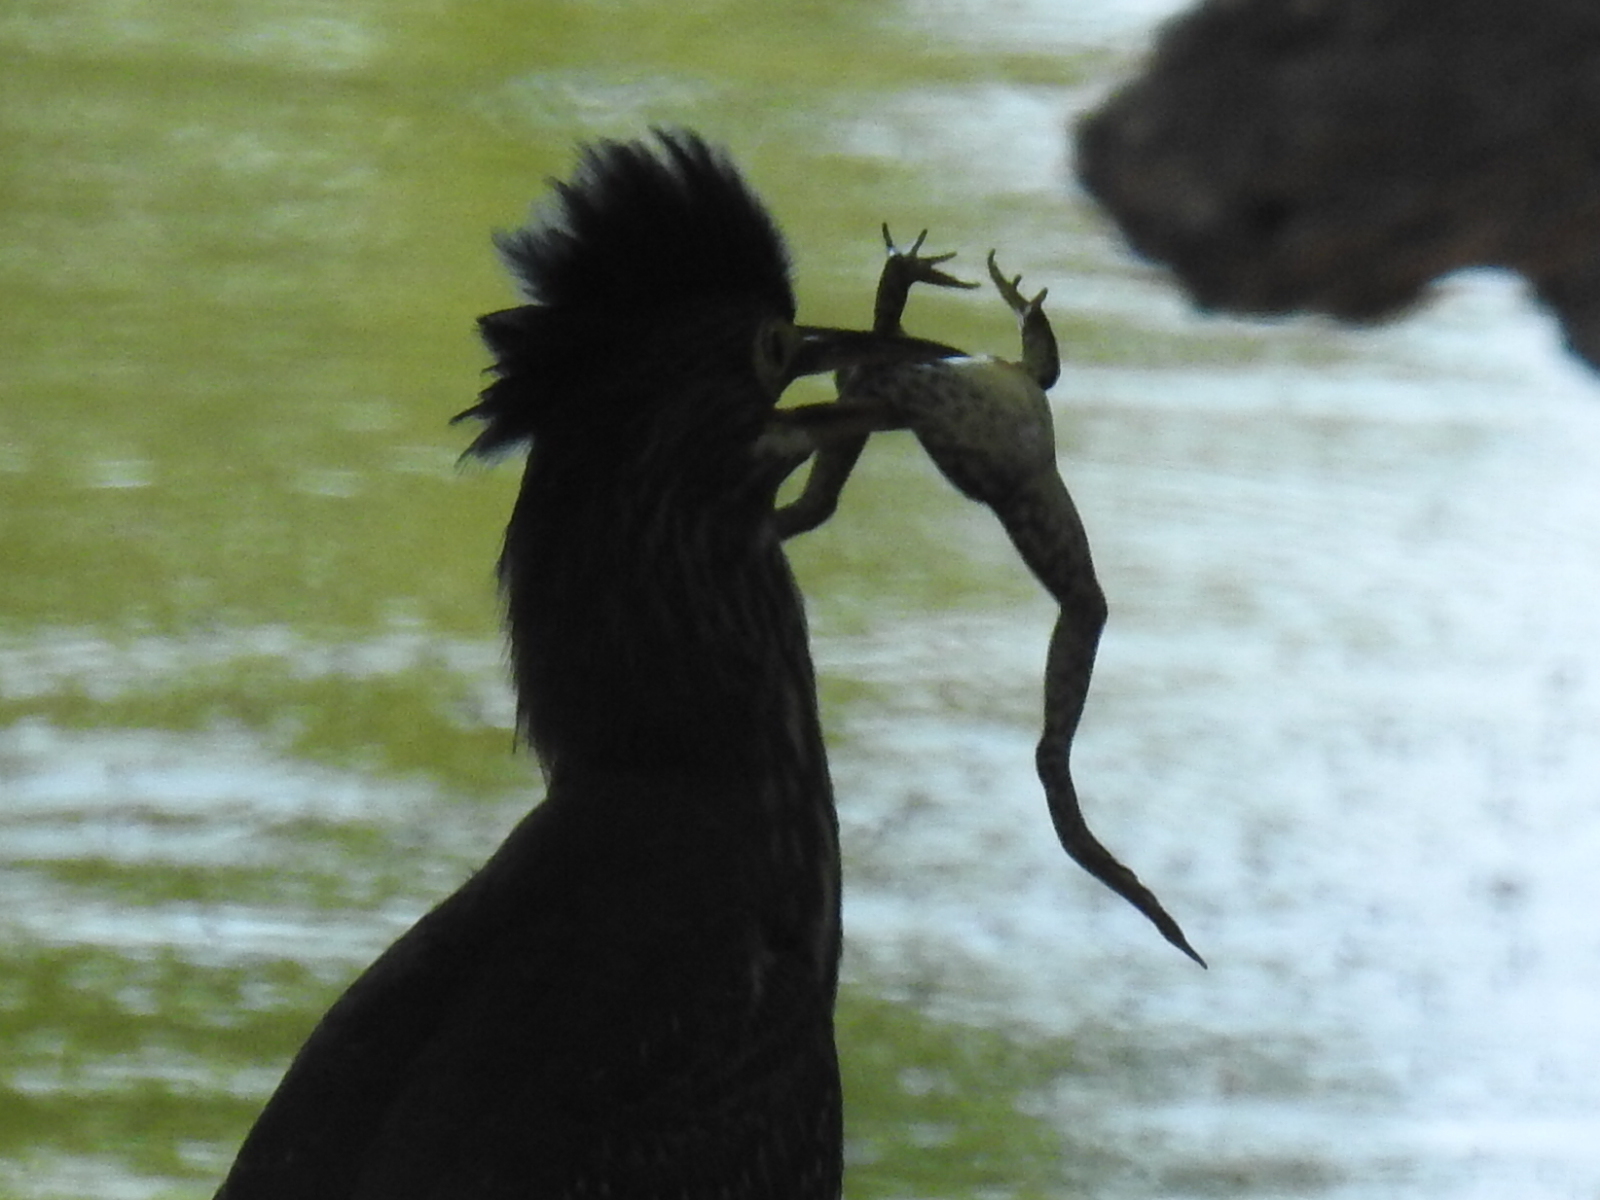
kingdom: Animalia
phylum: Chordata
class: Aves
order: Pelecaniformes
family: Ardeidae
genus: Butorides
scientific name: Butorides virescens
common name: Green heron
